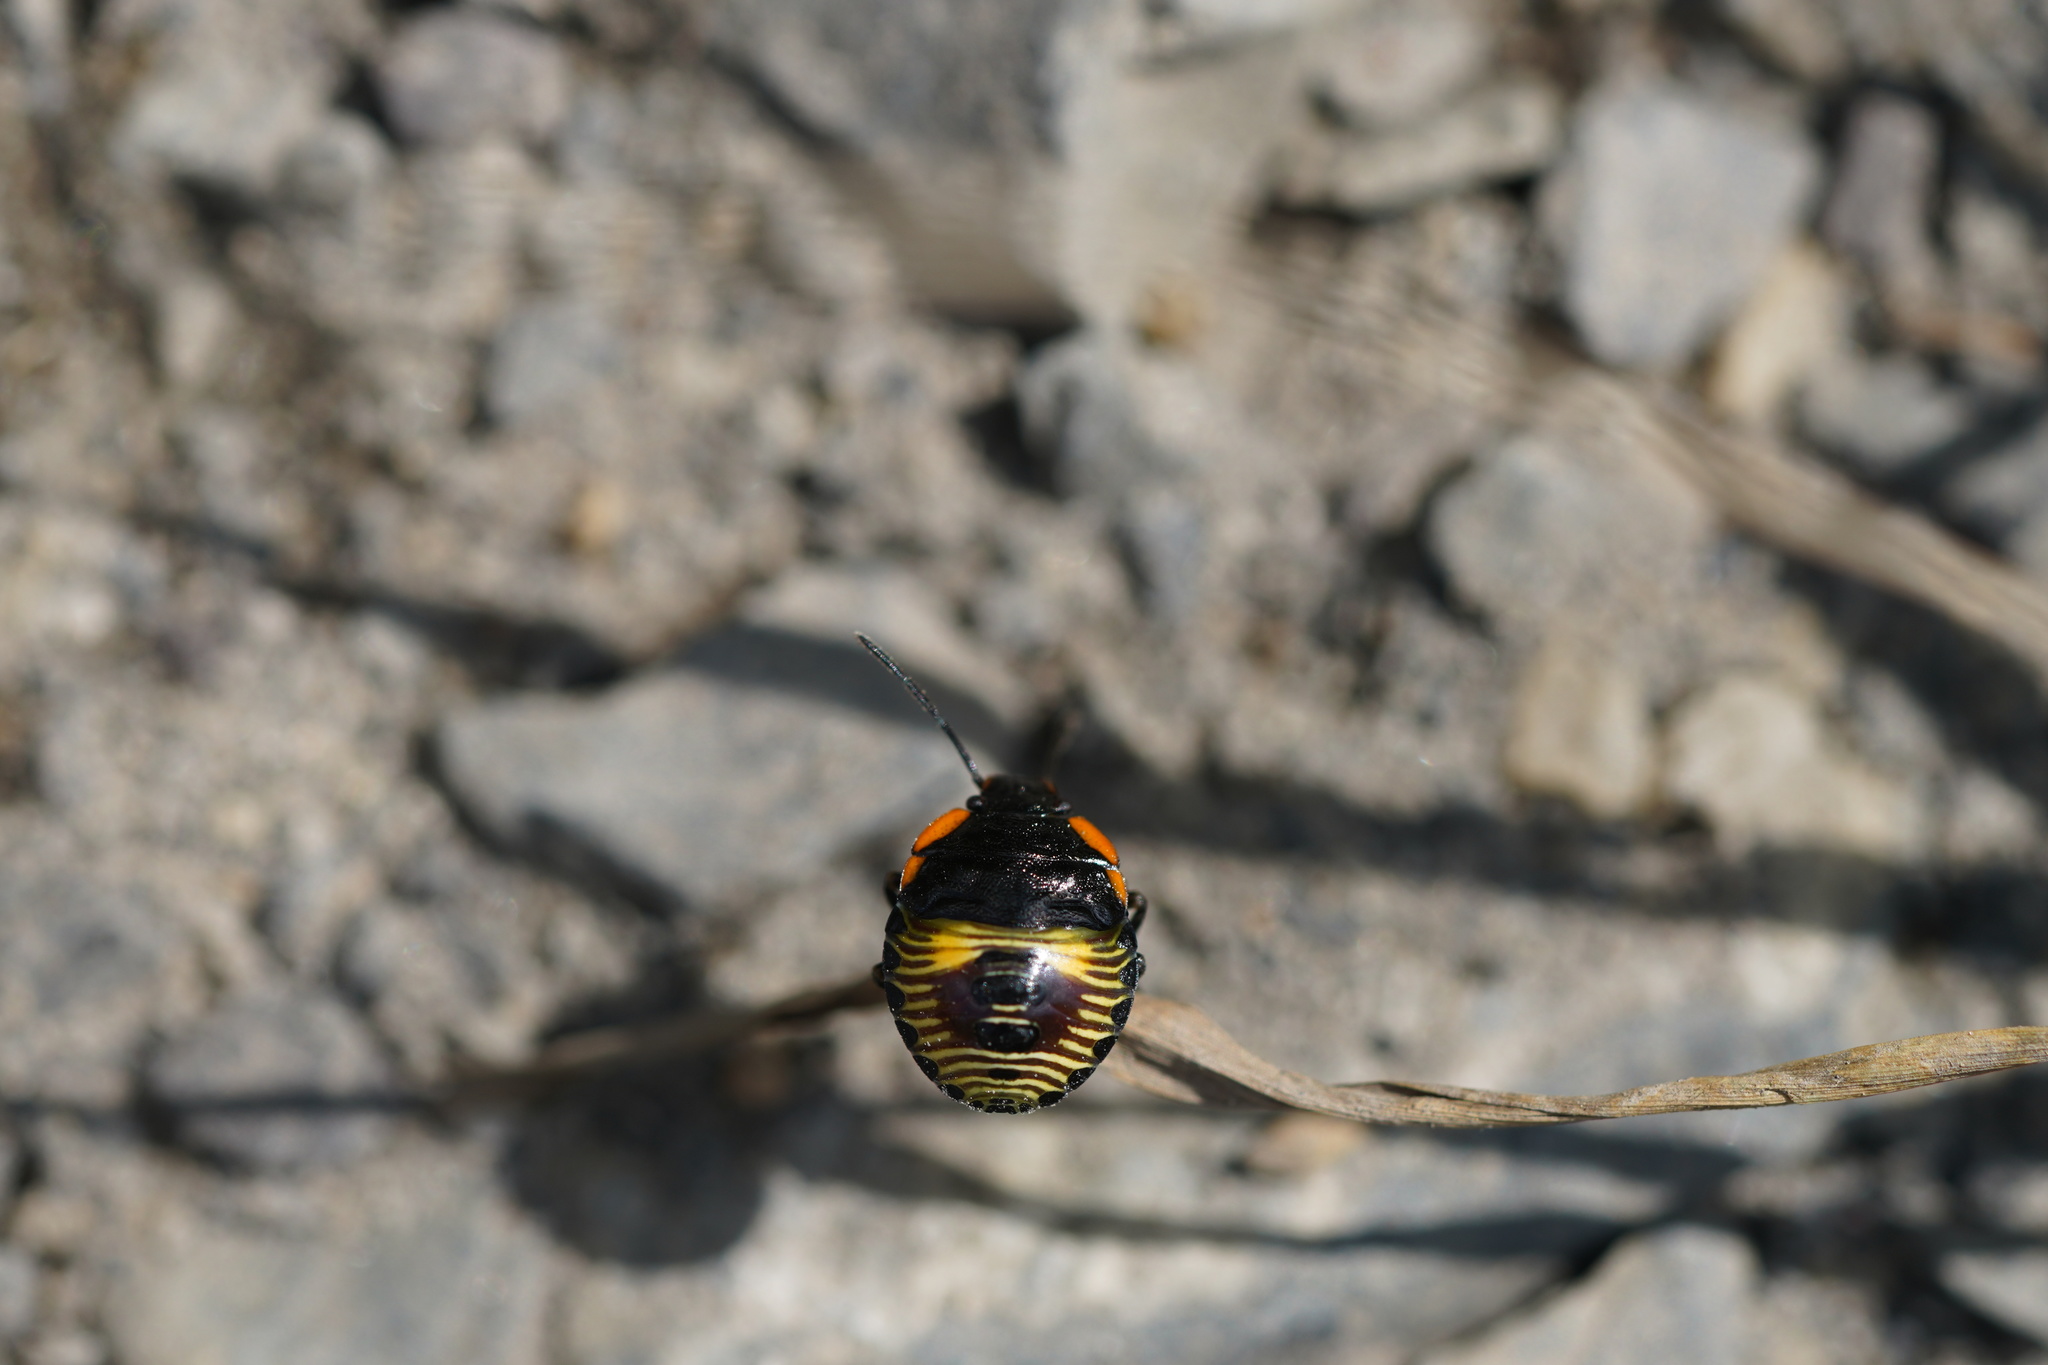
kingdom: Animalia
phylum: Arthropoda
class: Insecta
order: Hemiptera
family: Pentatomidae
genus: Chinavia
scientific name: Chinavia hilaris
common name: Green stink bug
